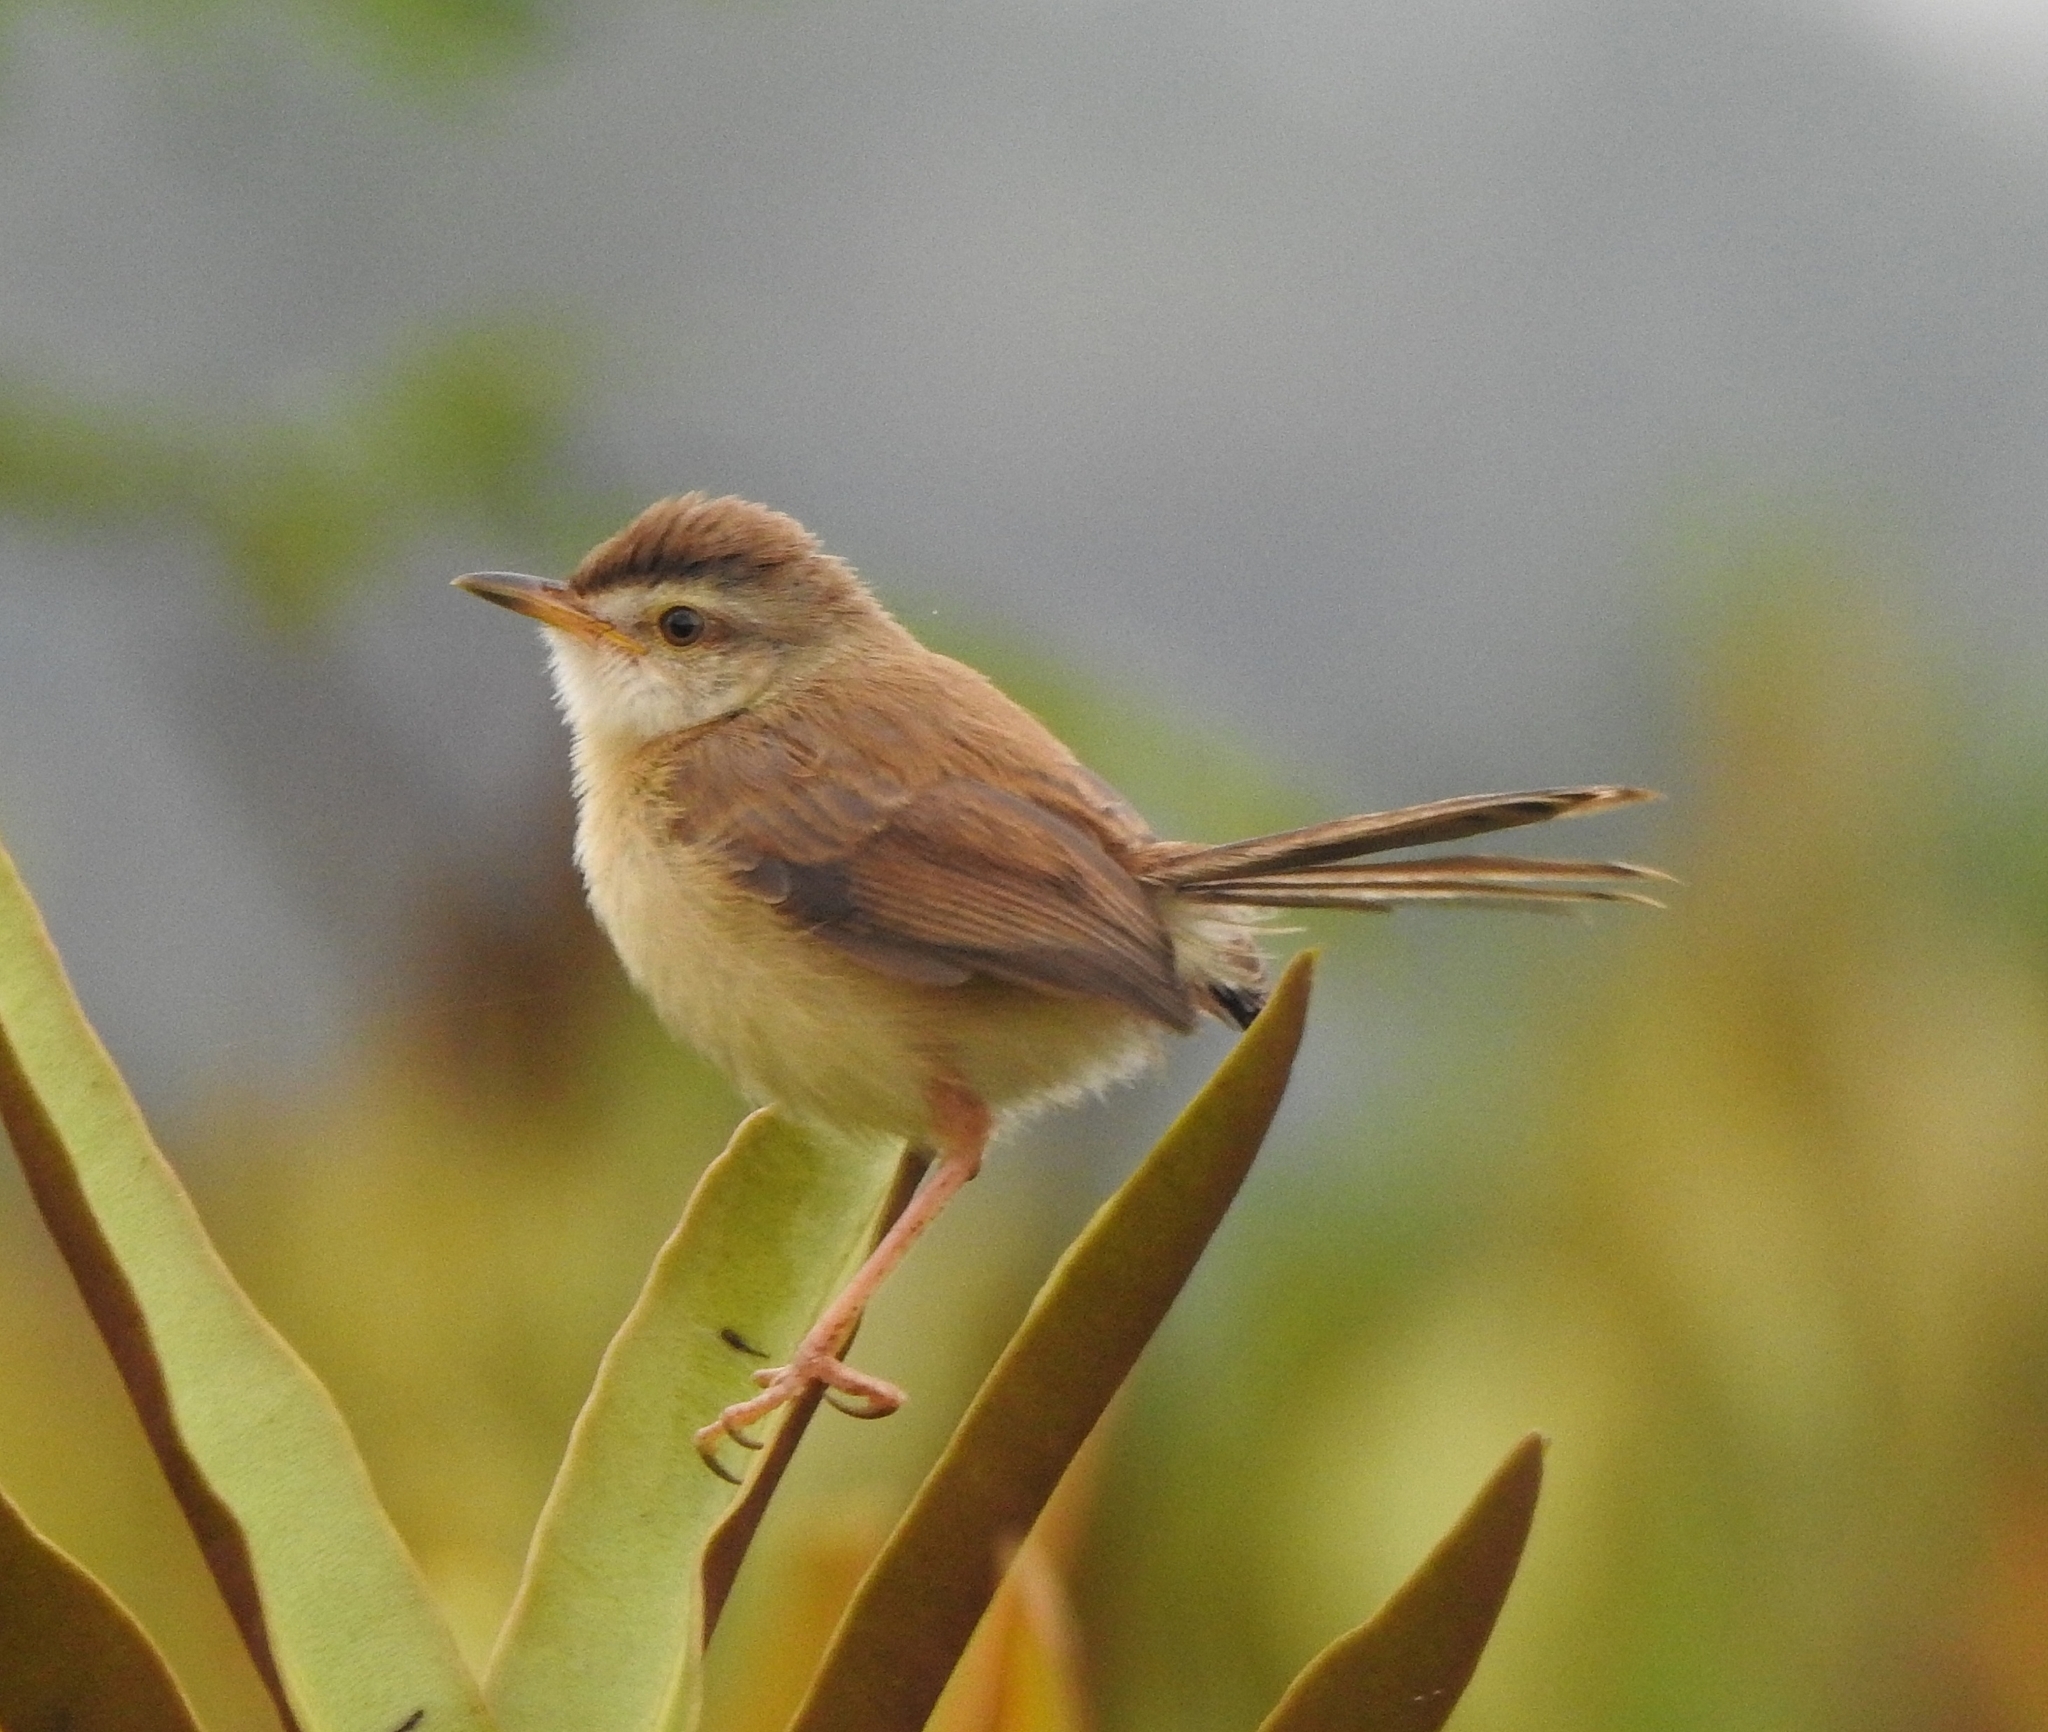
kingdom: Animalia
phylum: Chordata
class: Aves
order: Passeriformes
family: Cisticolidae
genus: Prinia
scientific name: Prinia inornata
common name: Plain prinia
